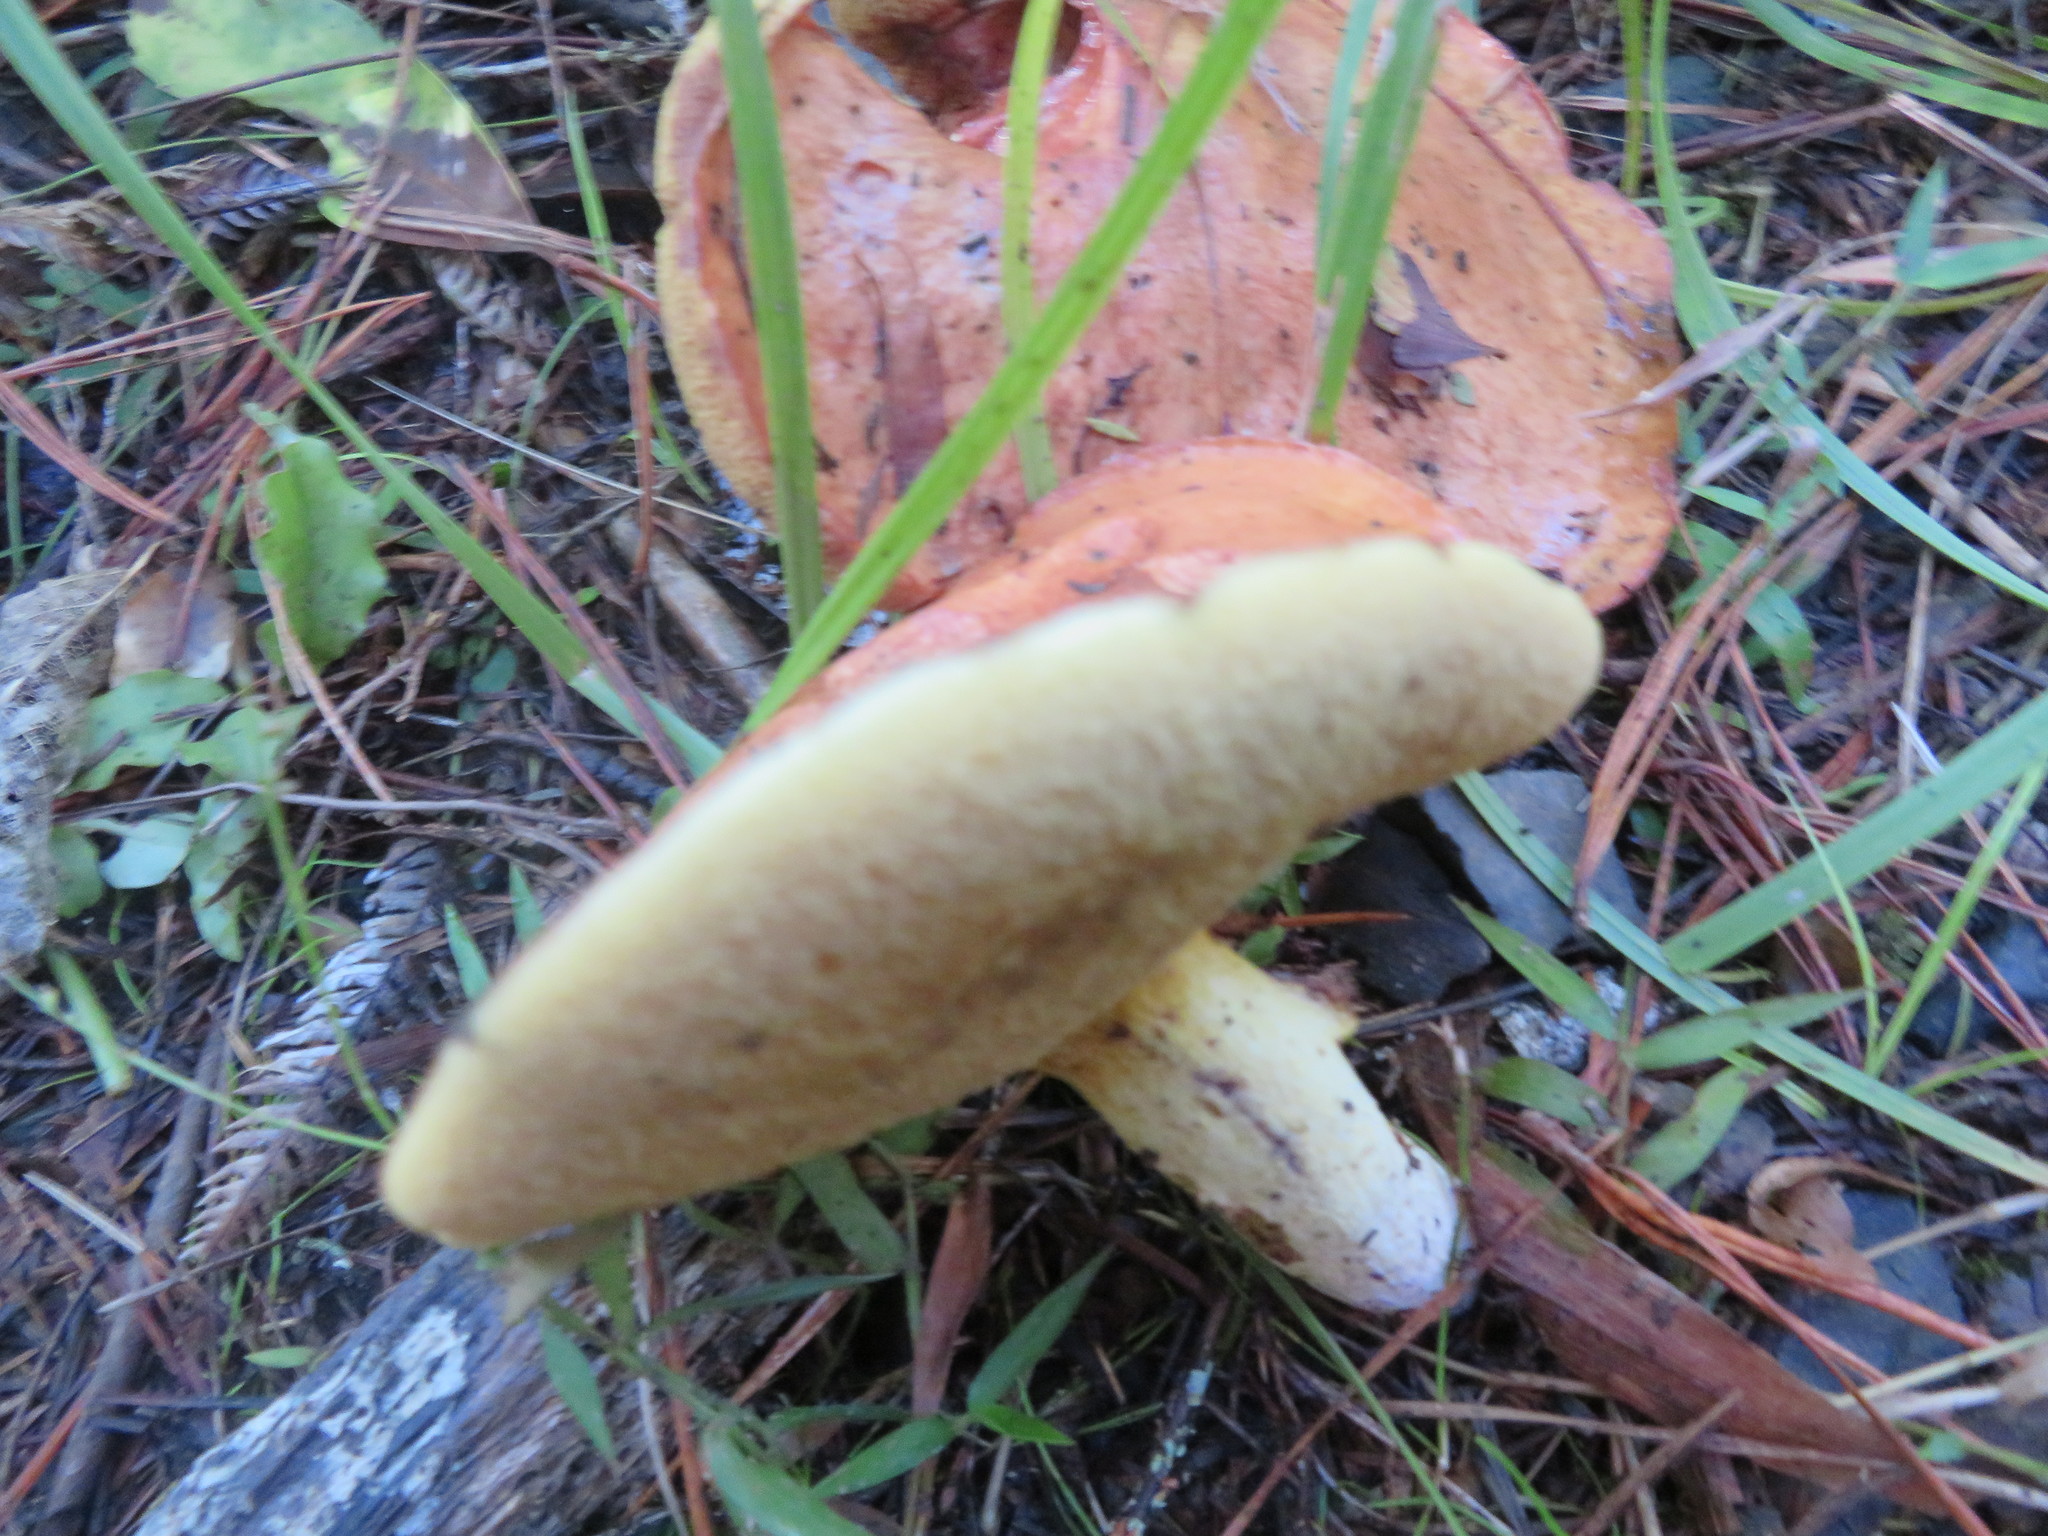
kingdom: Fungi
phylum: Basidiomycota
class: Agaricomycetes
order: Boletales
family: Suillaceae
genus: Suillus
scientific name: Suillus granulatus
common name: Weeping bolete
